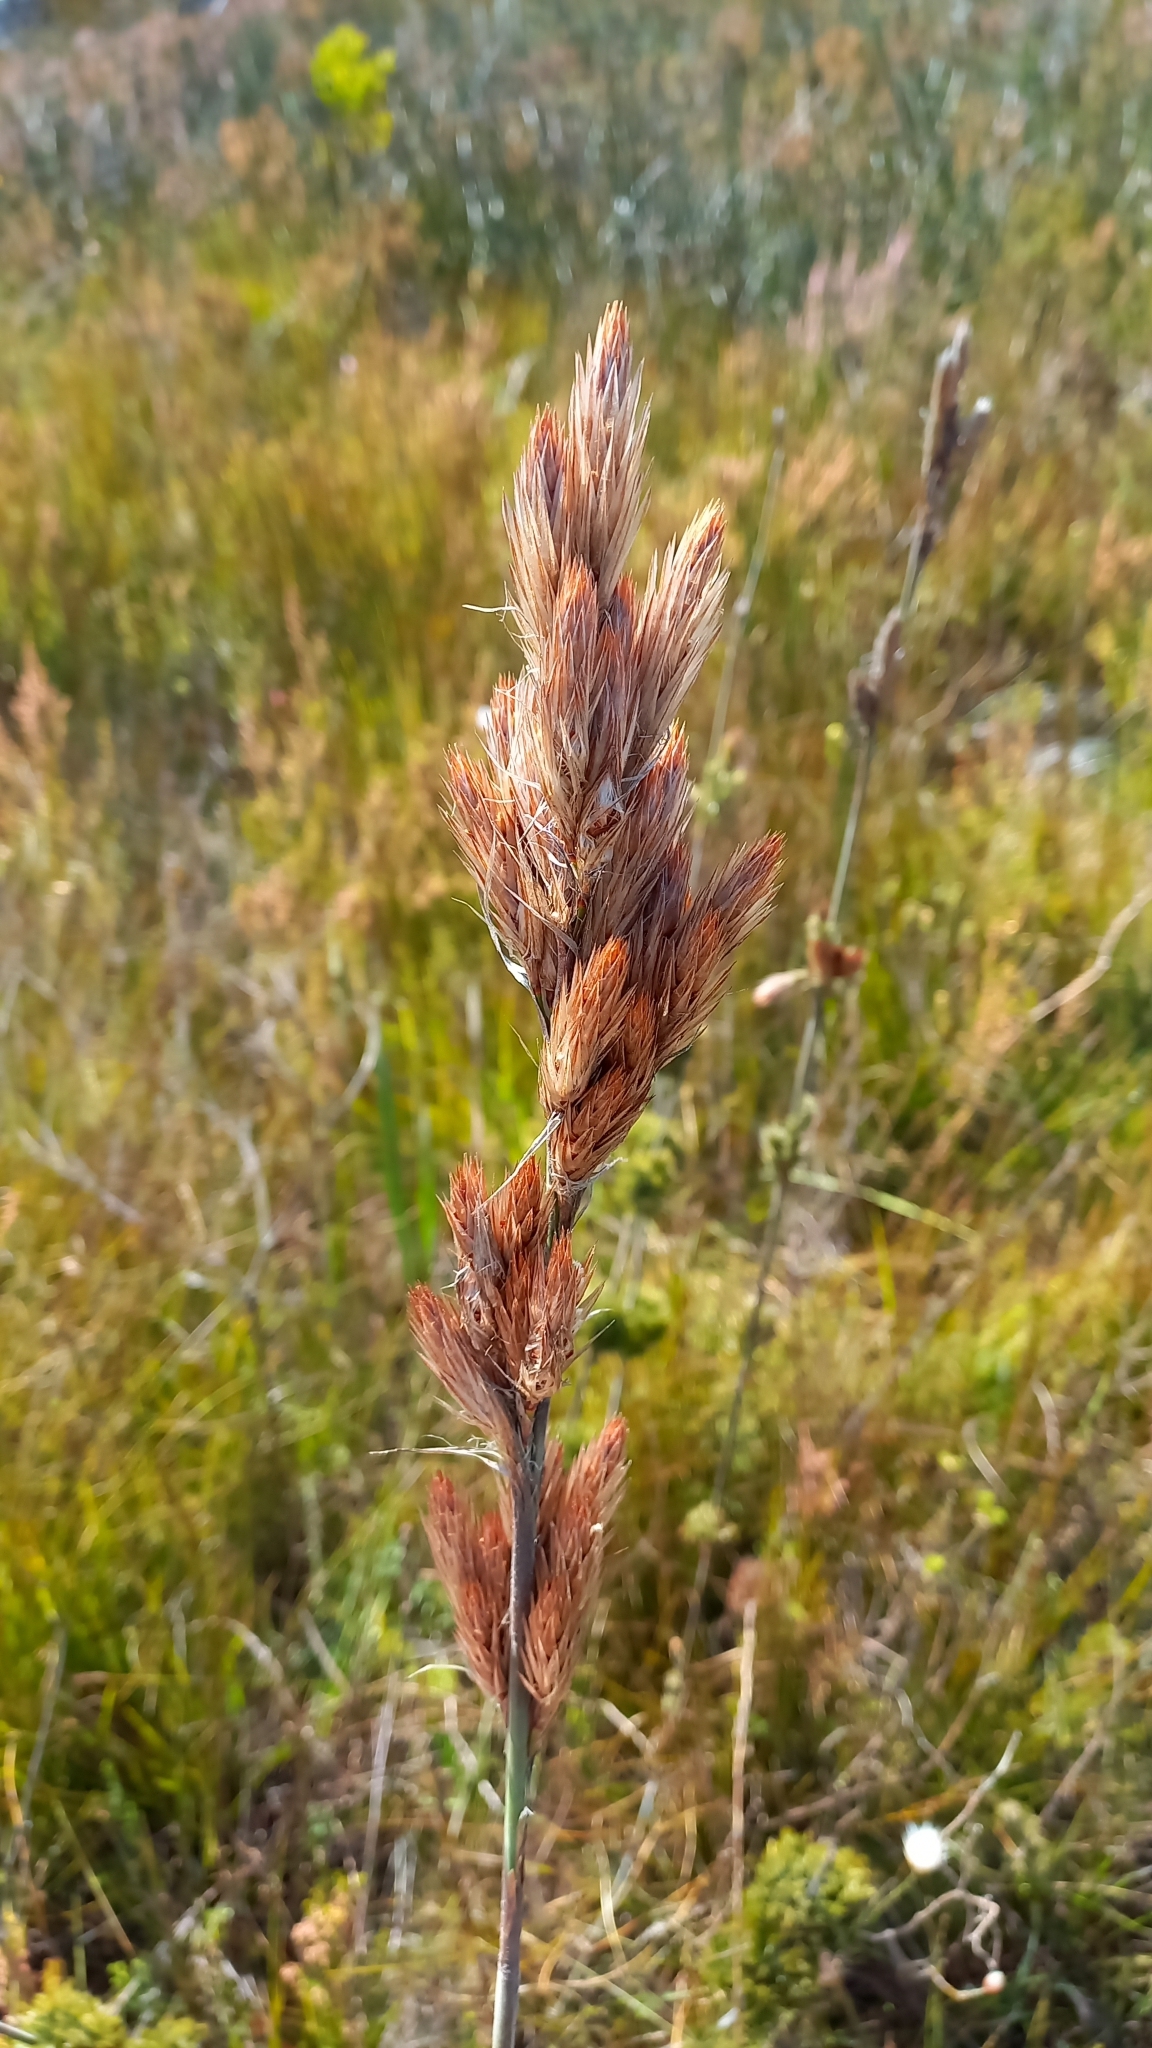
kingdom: Plantae
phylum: Tracheophyta
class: Liliopsida
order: Poales
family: Restionaceae
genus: Thamnochortus
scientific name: Thamnochortus cinereus
